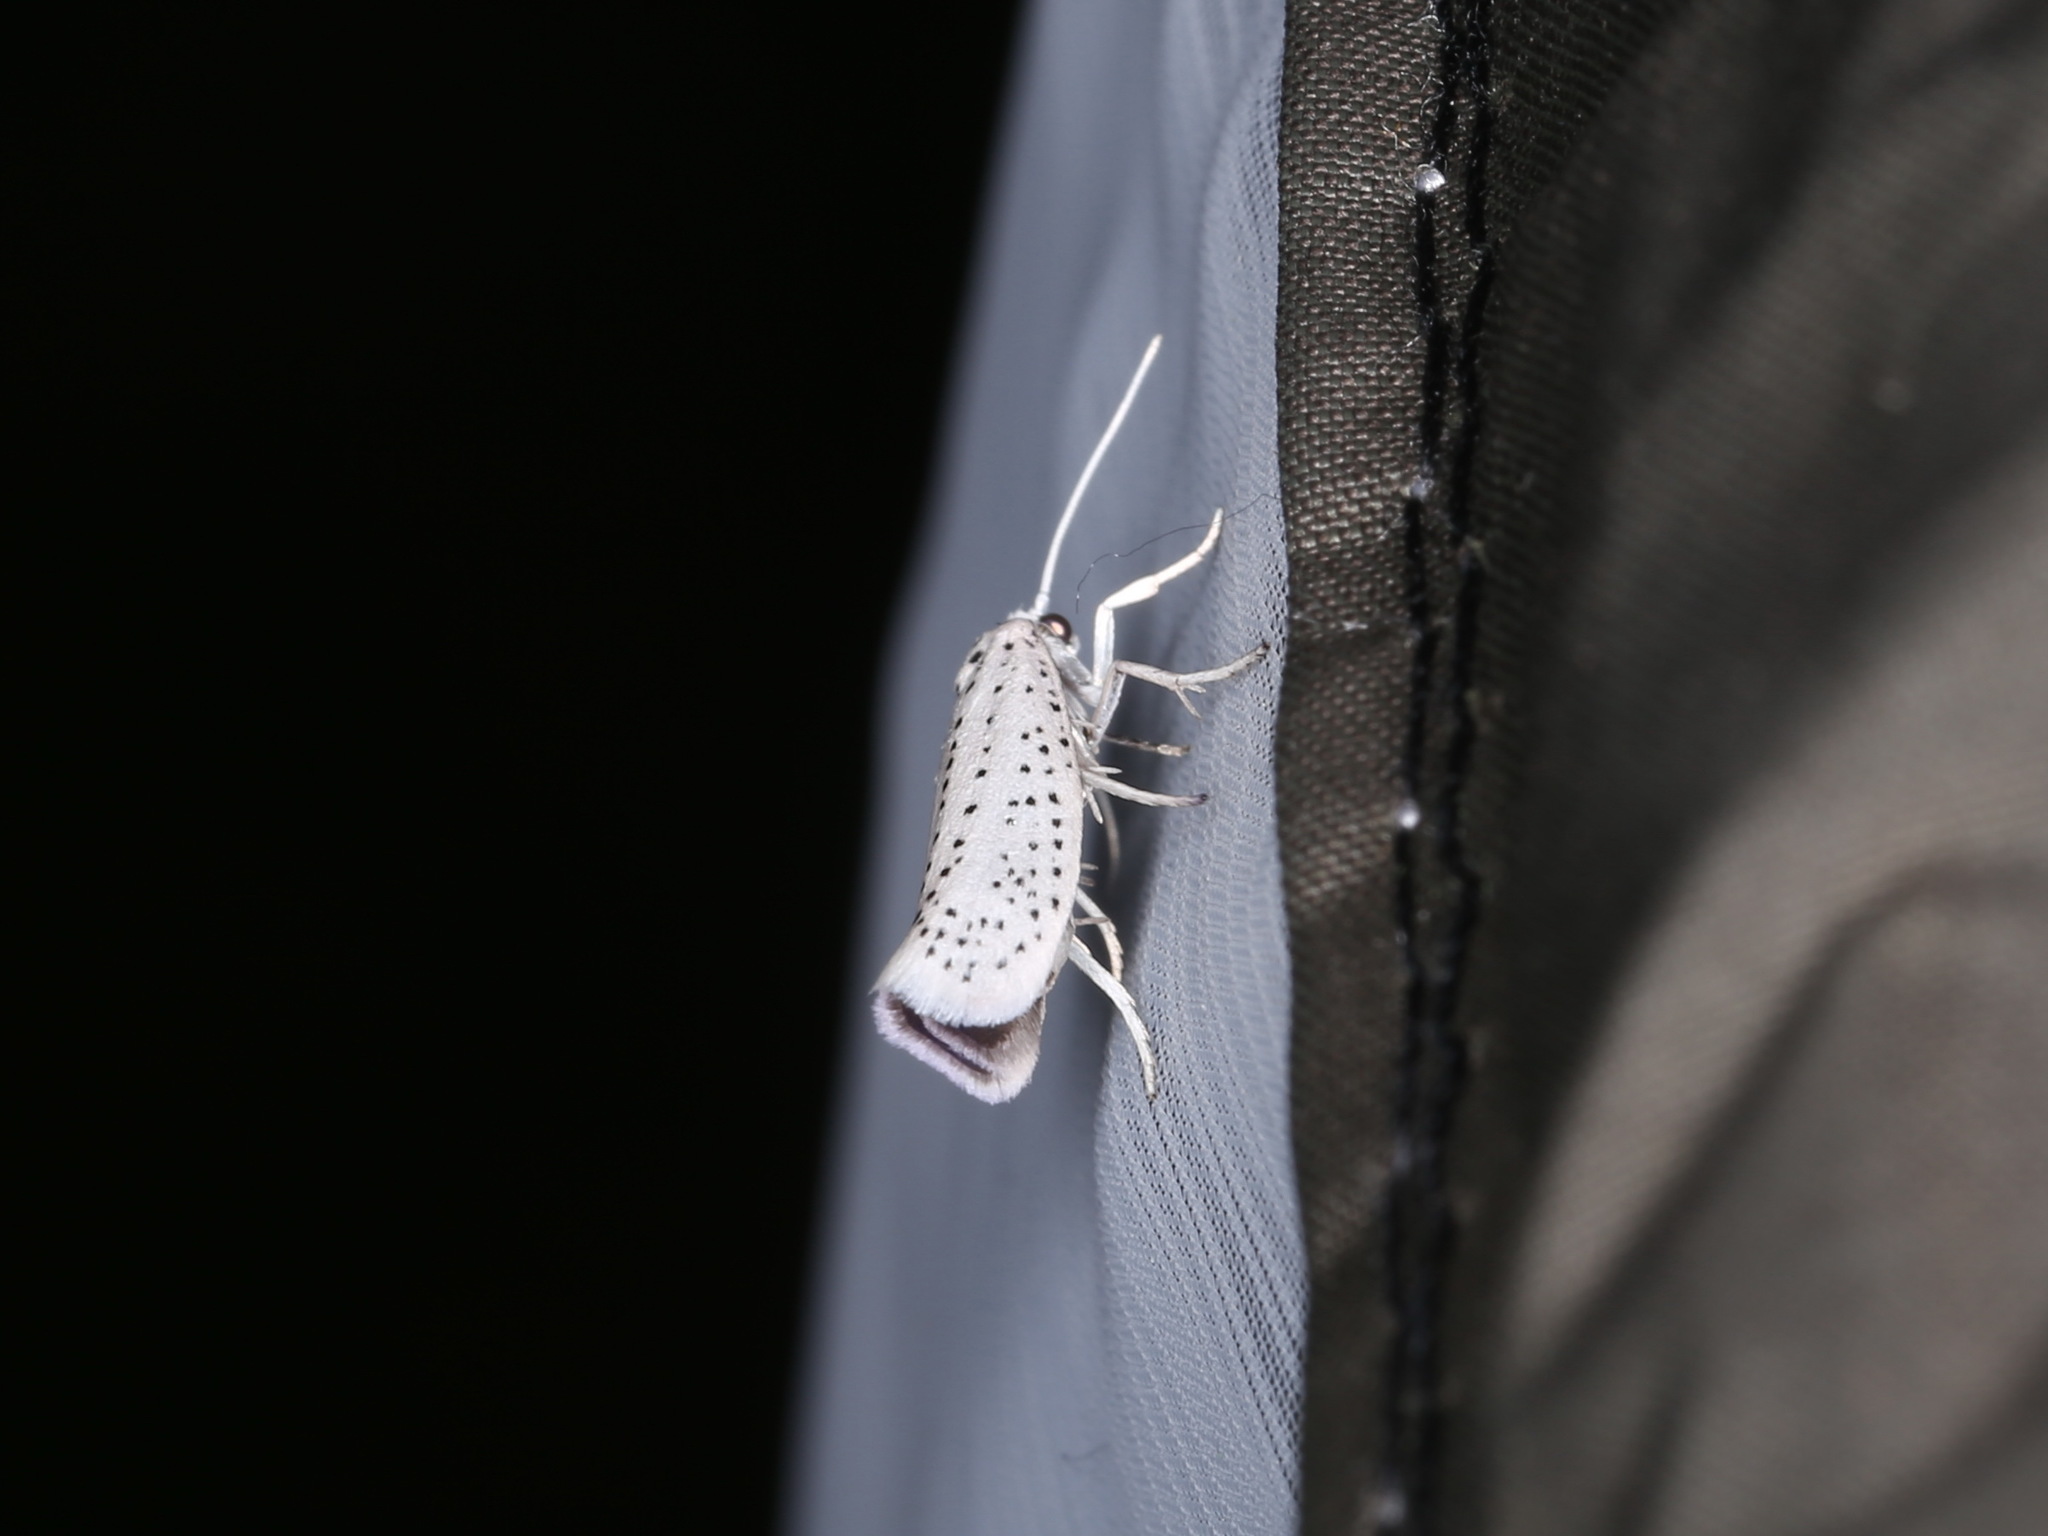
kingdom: Animalia
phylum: Arthropoda
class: Insecta
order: Lepidoptera
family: Yponomeutidae
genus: Yponomeuta
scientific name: Yponomeuta evonymella
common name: Bird-cherry ermine
